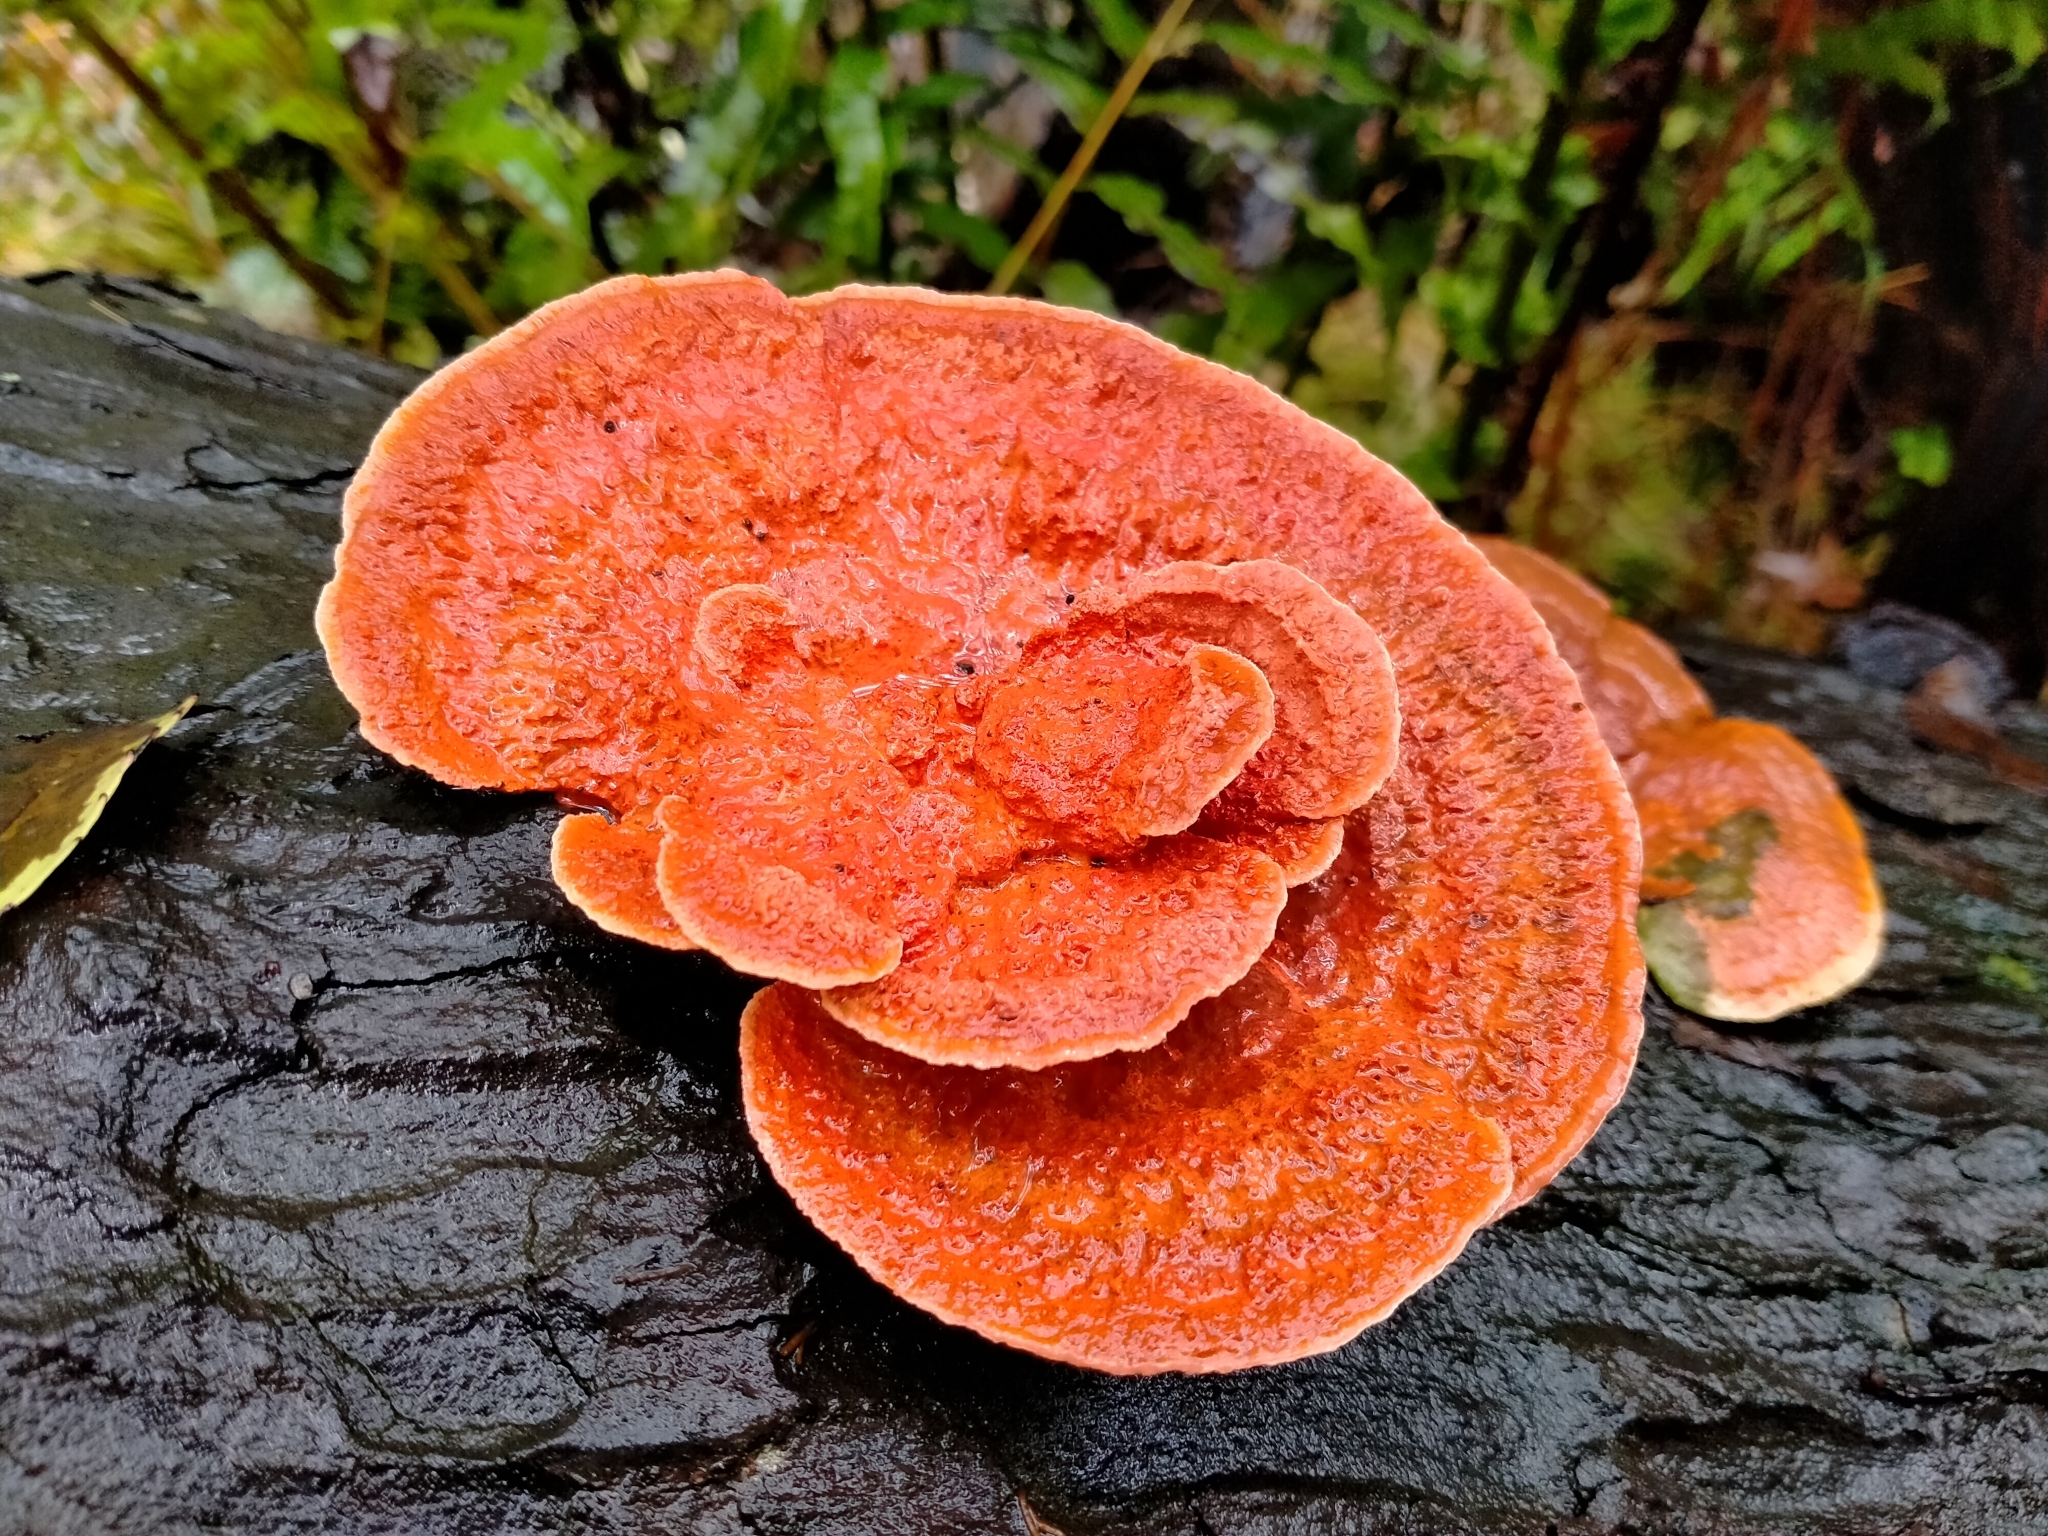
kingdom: Fungi
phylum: Basidiomycota
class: Agaricomycetes
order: Polyporales
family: Polyporaceae
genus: Trametes
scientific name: Trametes coccinea
